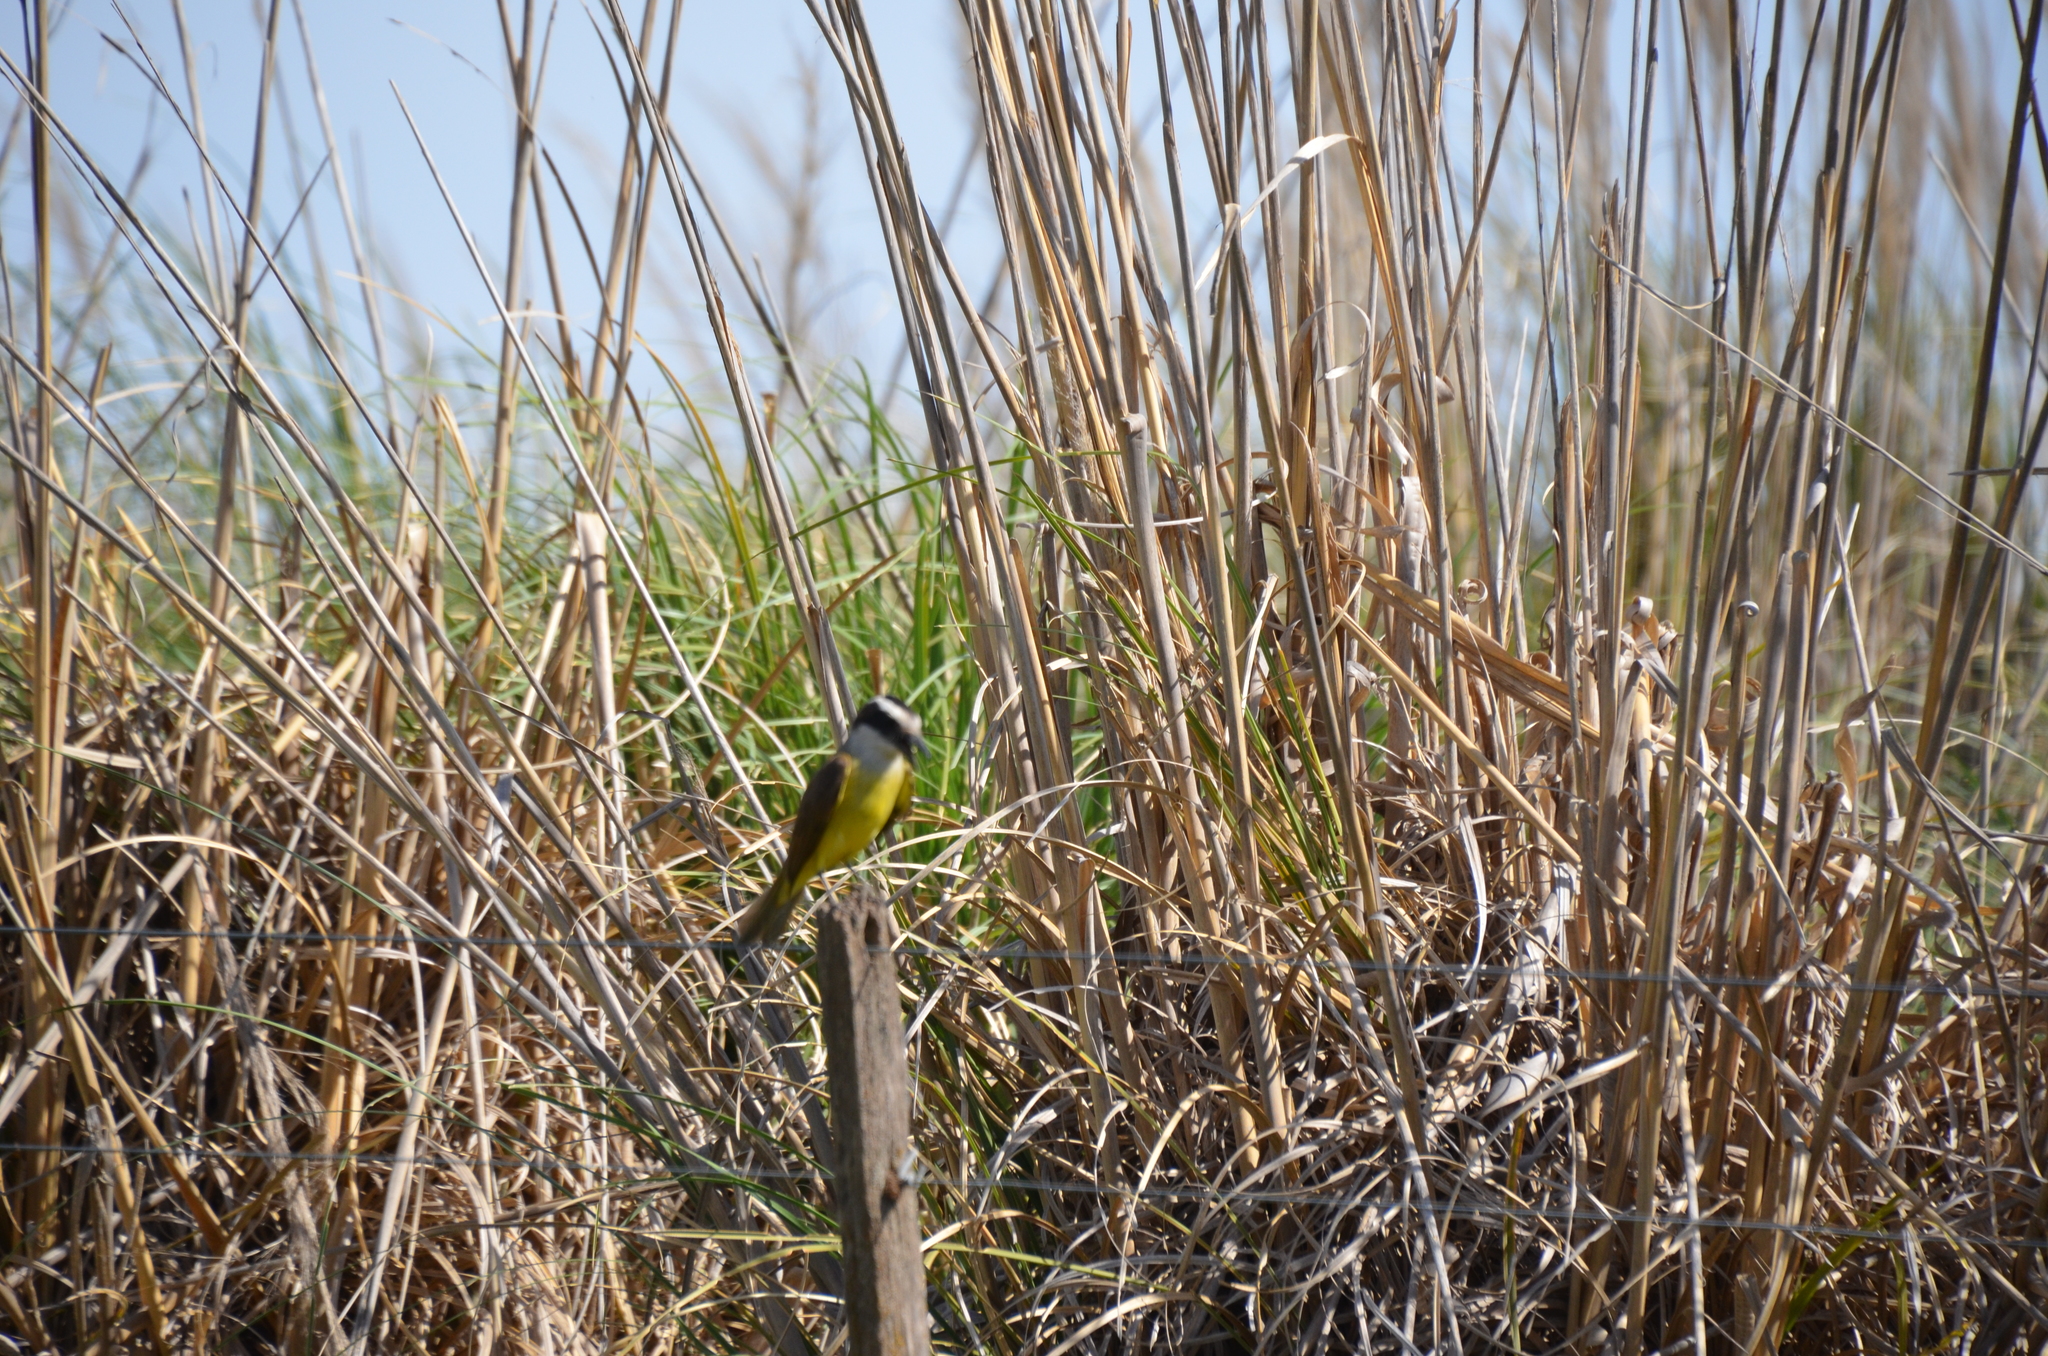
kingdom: Animalia
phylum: Chordata
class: Aves
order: Passeriformes
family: Tyrannidae
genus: Pitangus
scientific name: Pitangus sulphuratus
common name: Great kiskadee
